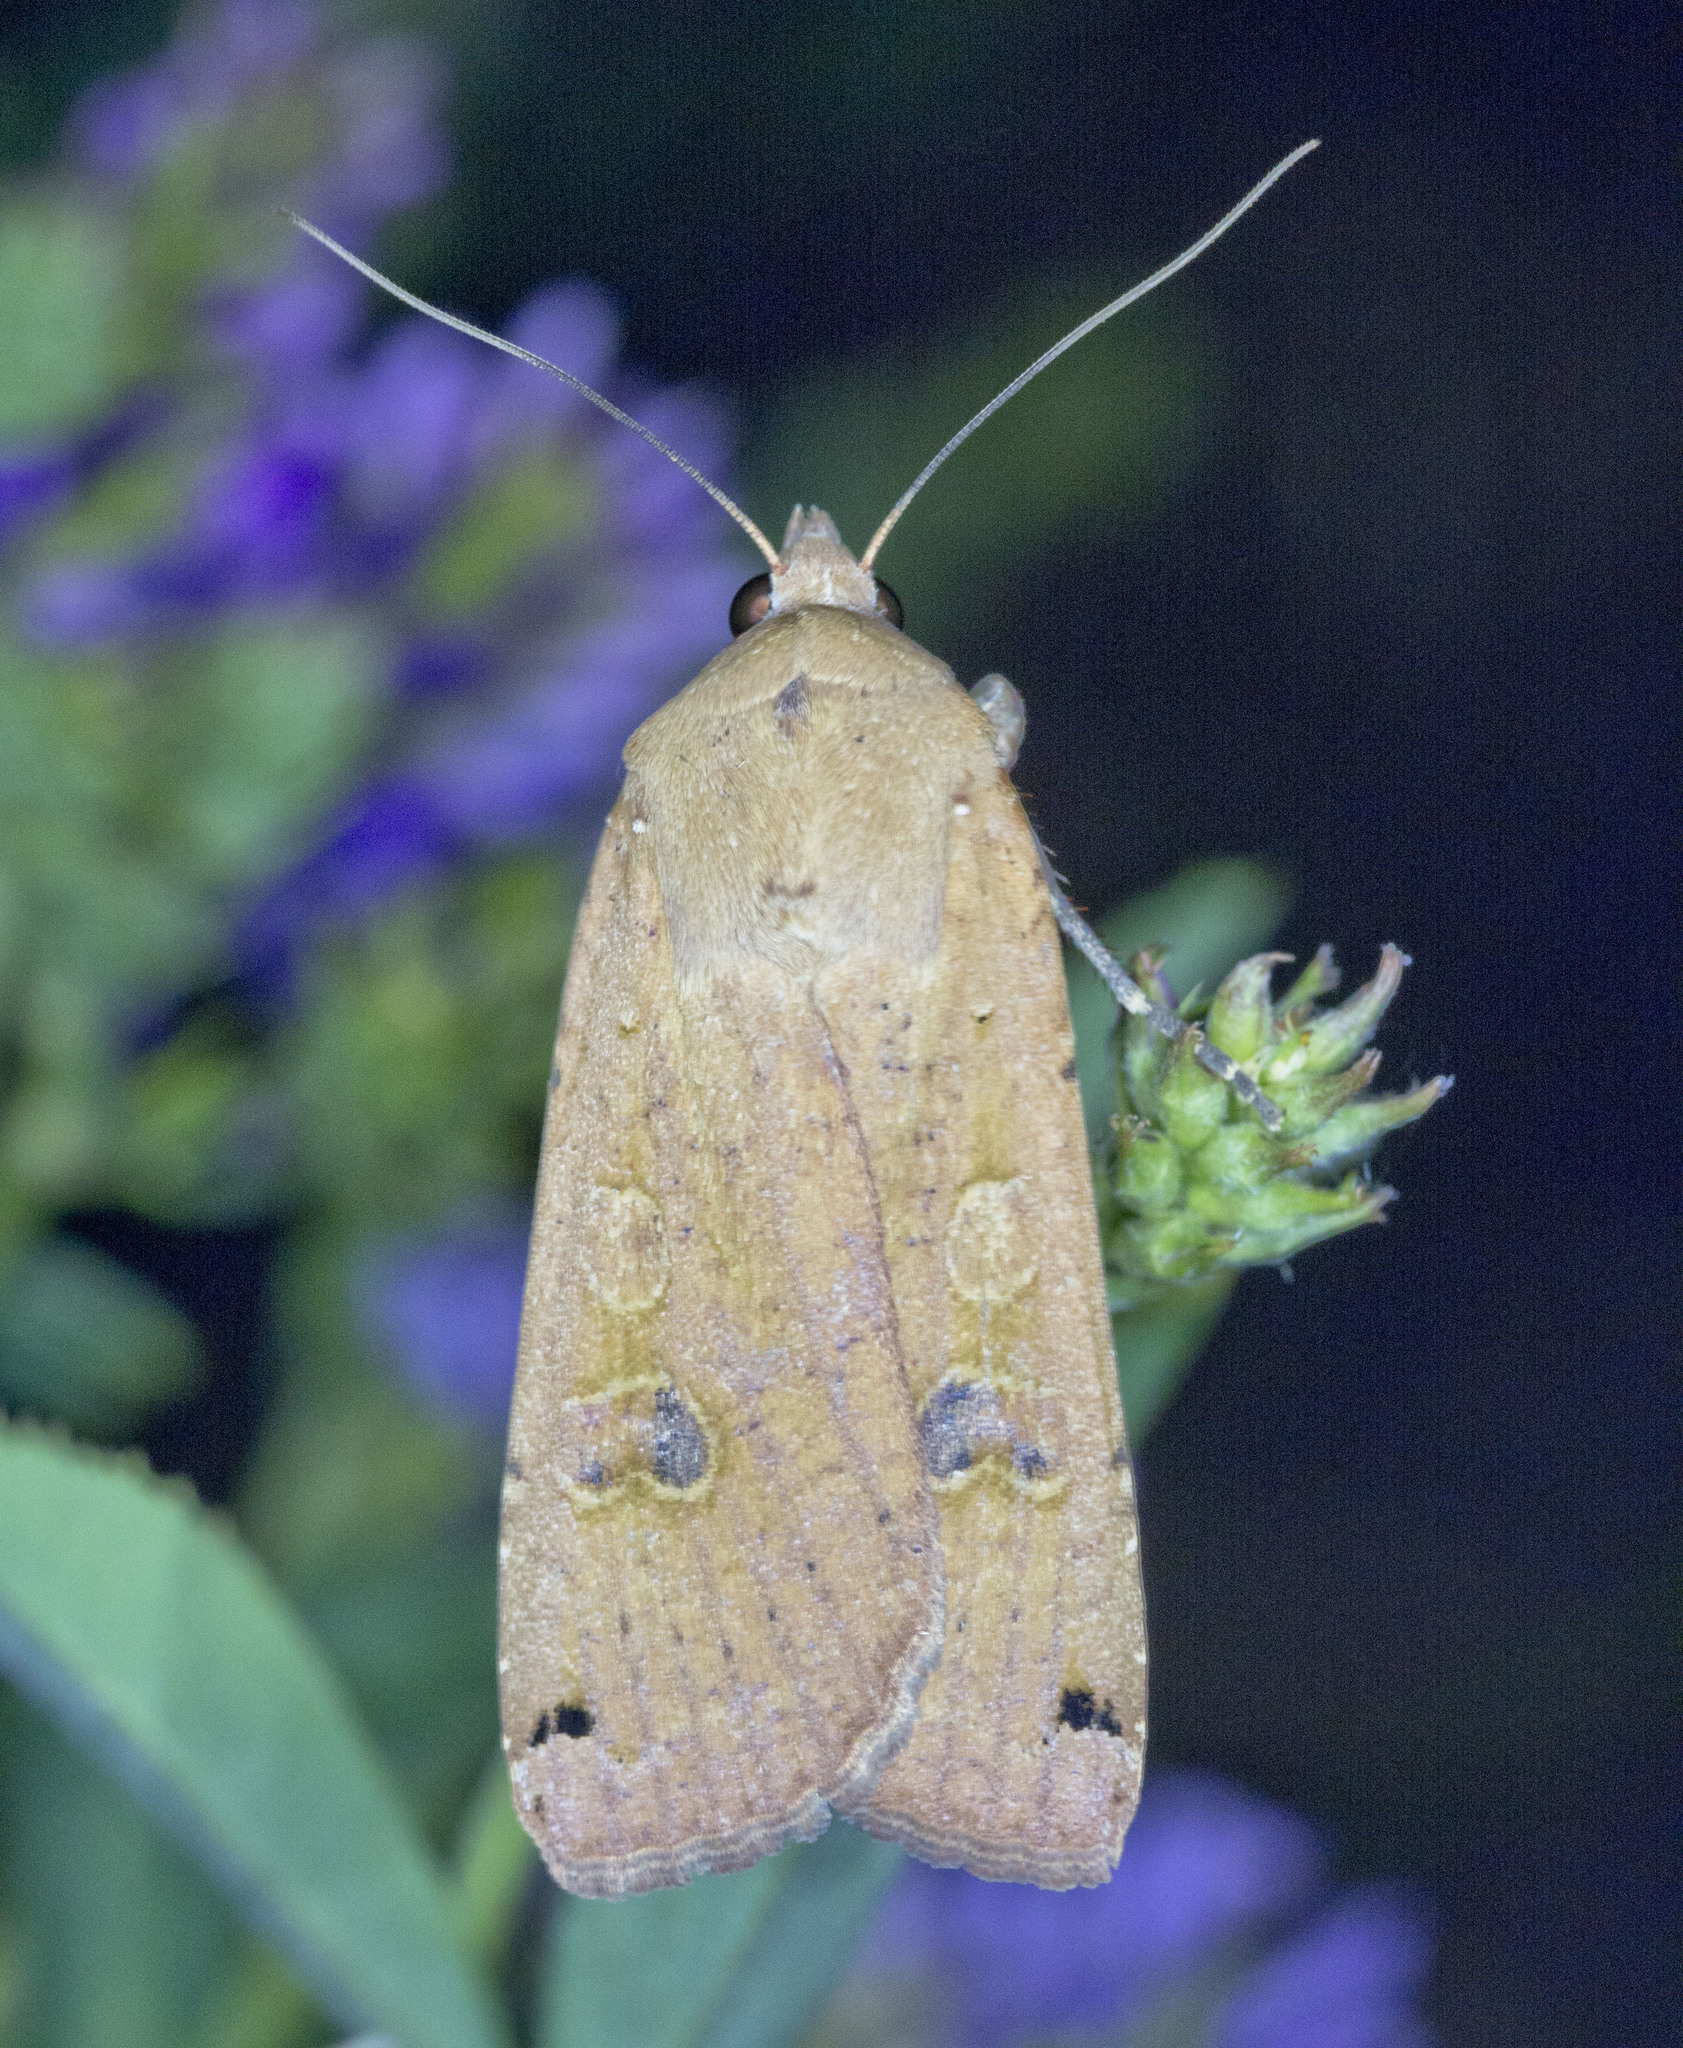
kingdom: Animalia
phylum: Arthropoda
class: Insecta
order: Lepidoptera
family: Noctuidae
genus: Noctua
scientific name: Noctua pronuba
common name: Large yellow underwing
